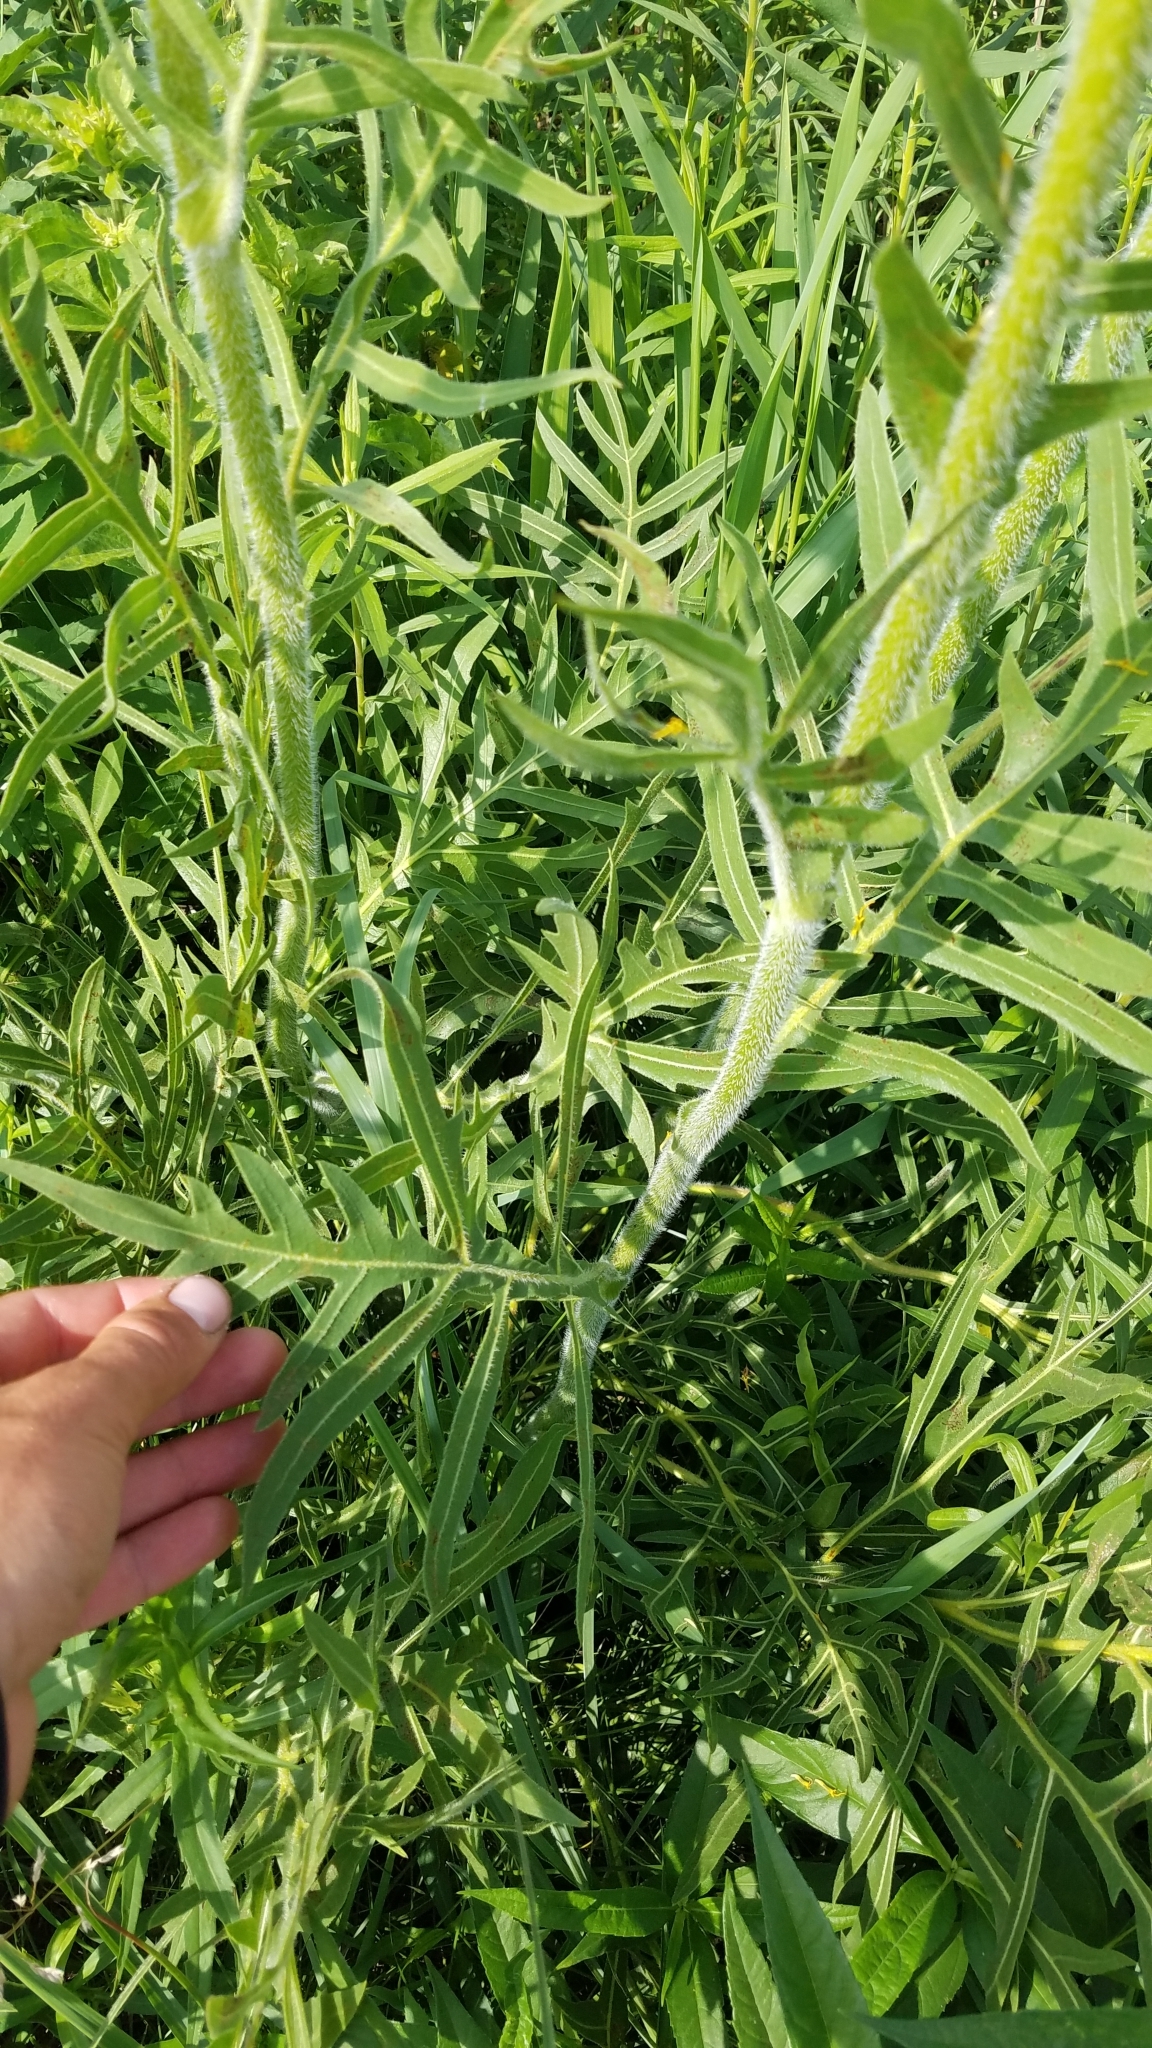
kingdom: Plantae
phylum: Tracheophyta
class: Magnoliopsida
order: Asterales
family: Asteraceae
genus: Silphium
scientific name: Silphium laciniatum
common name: Polarplant
